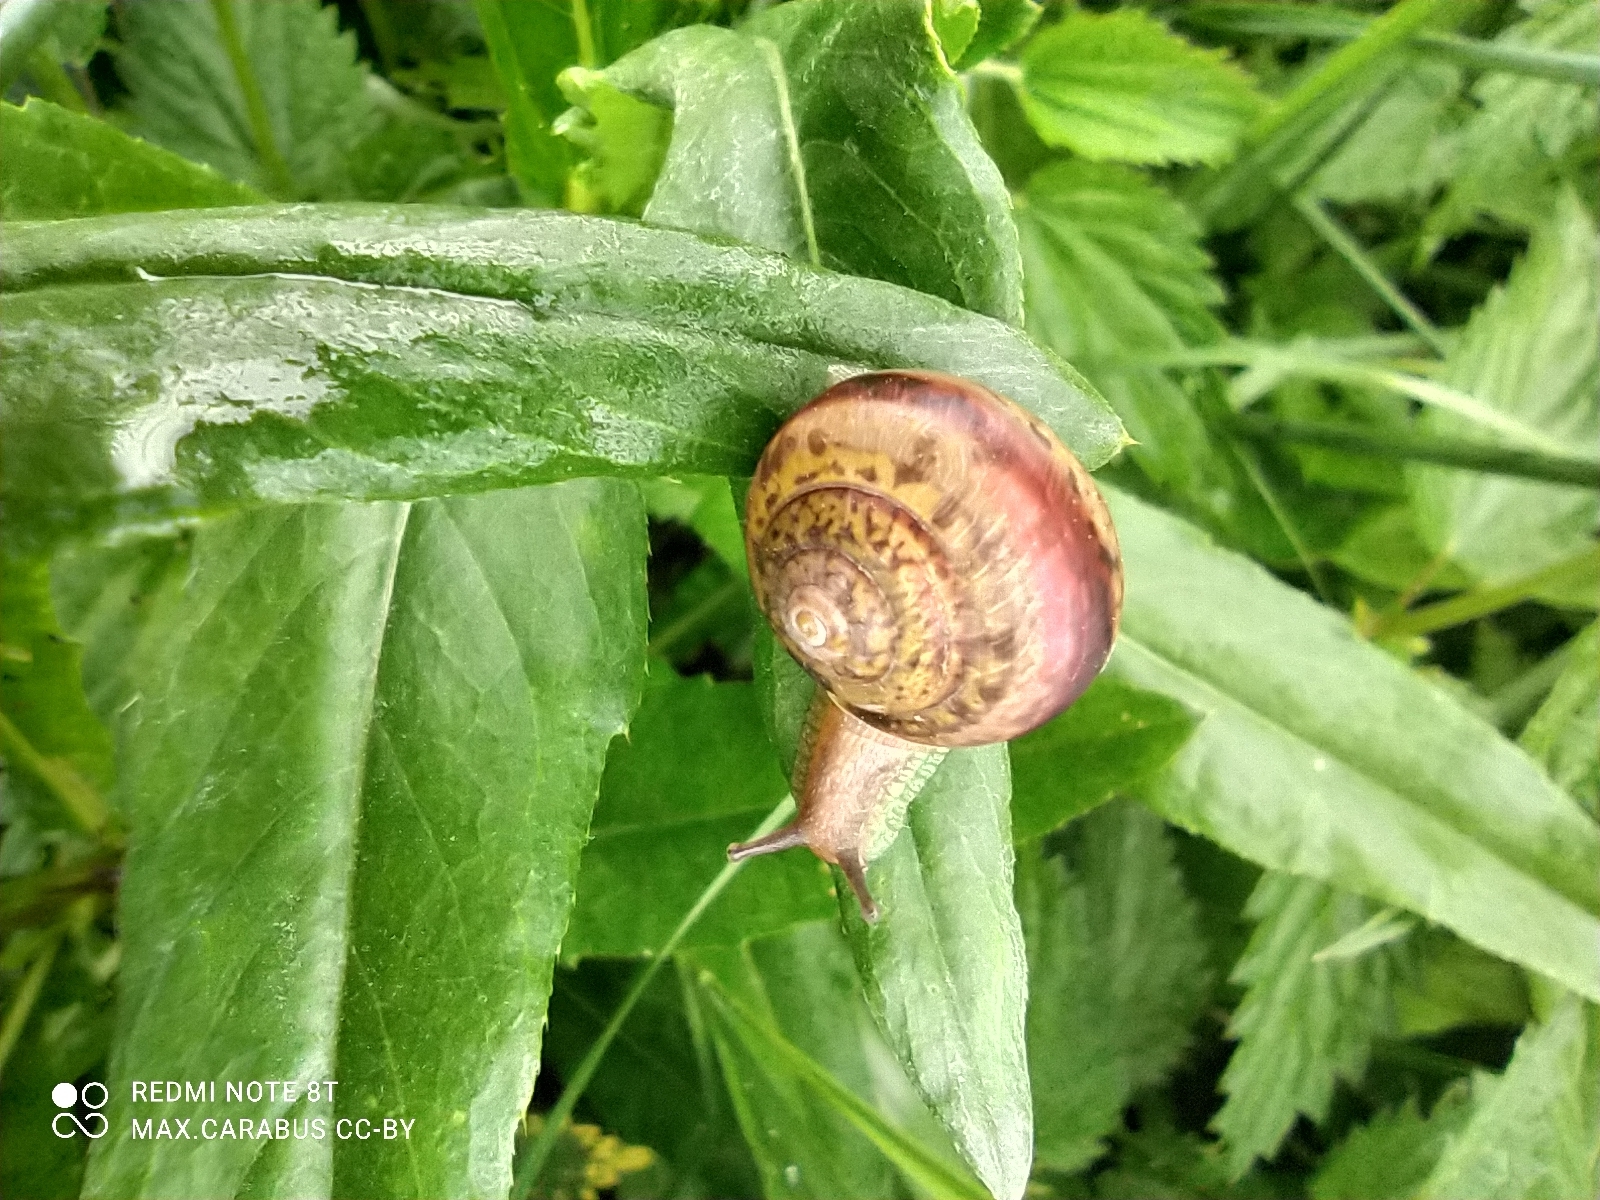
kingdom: Animalia
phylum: Mollusca
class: Gastropoda
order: Stylommatophora
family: Camaenidae
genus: Fruticicola
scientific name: Fruticicola fruticum
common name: Bush snail
